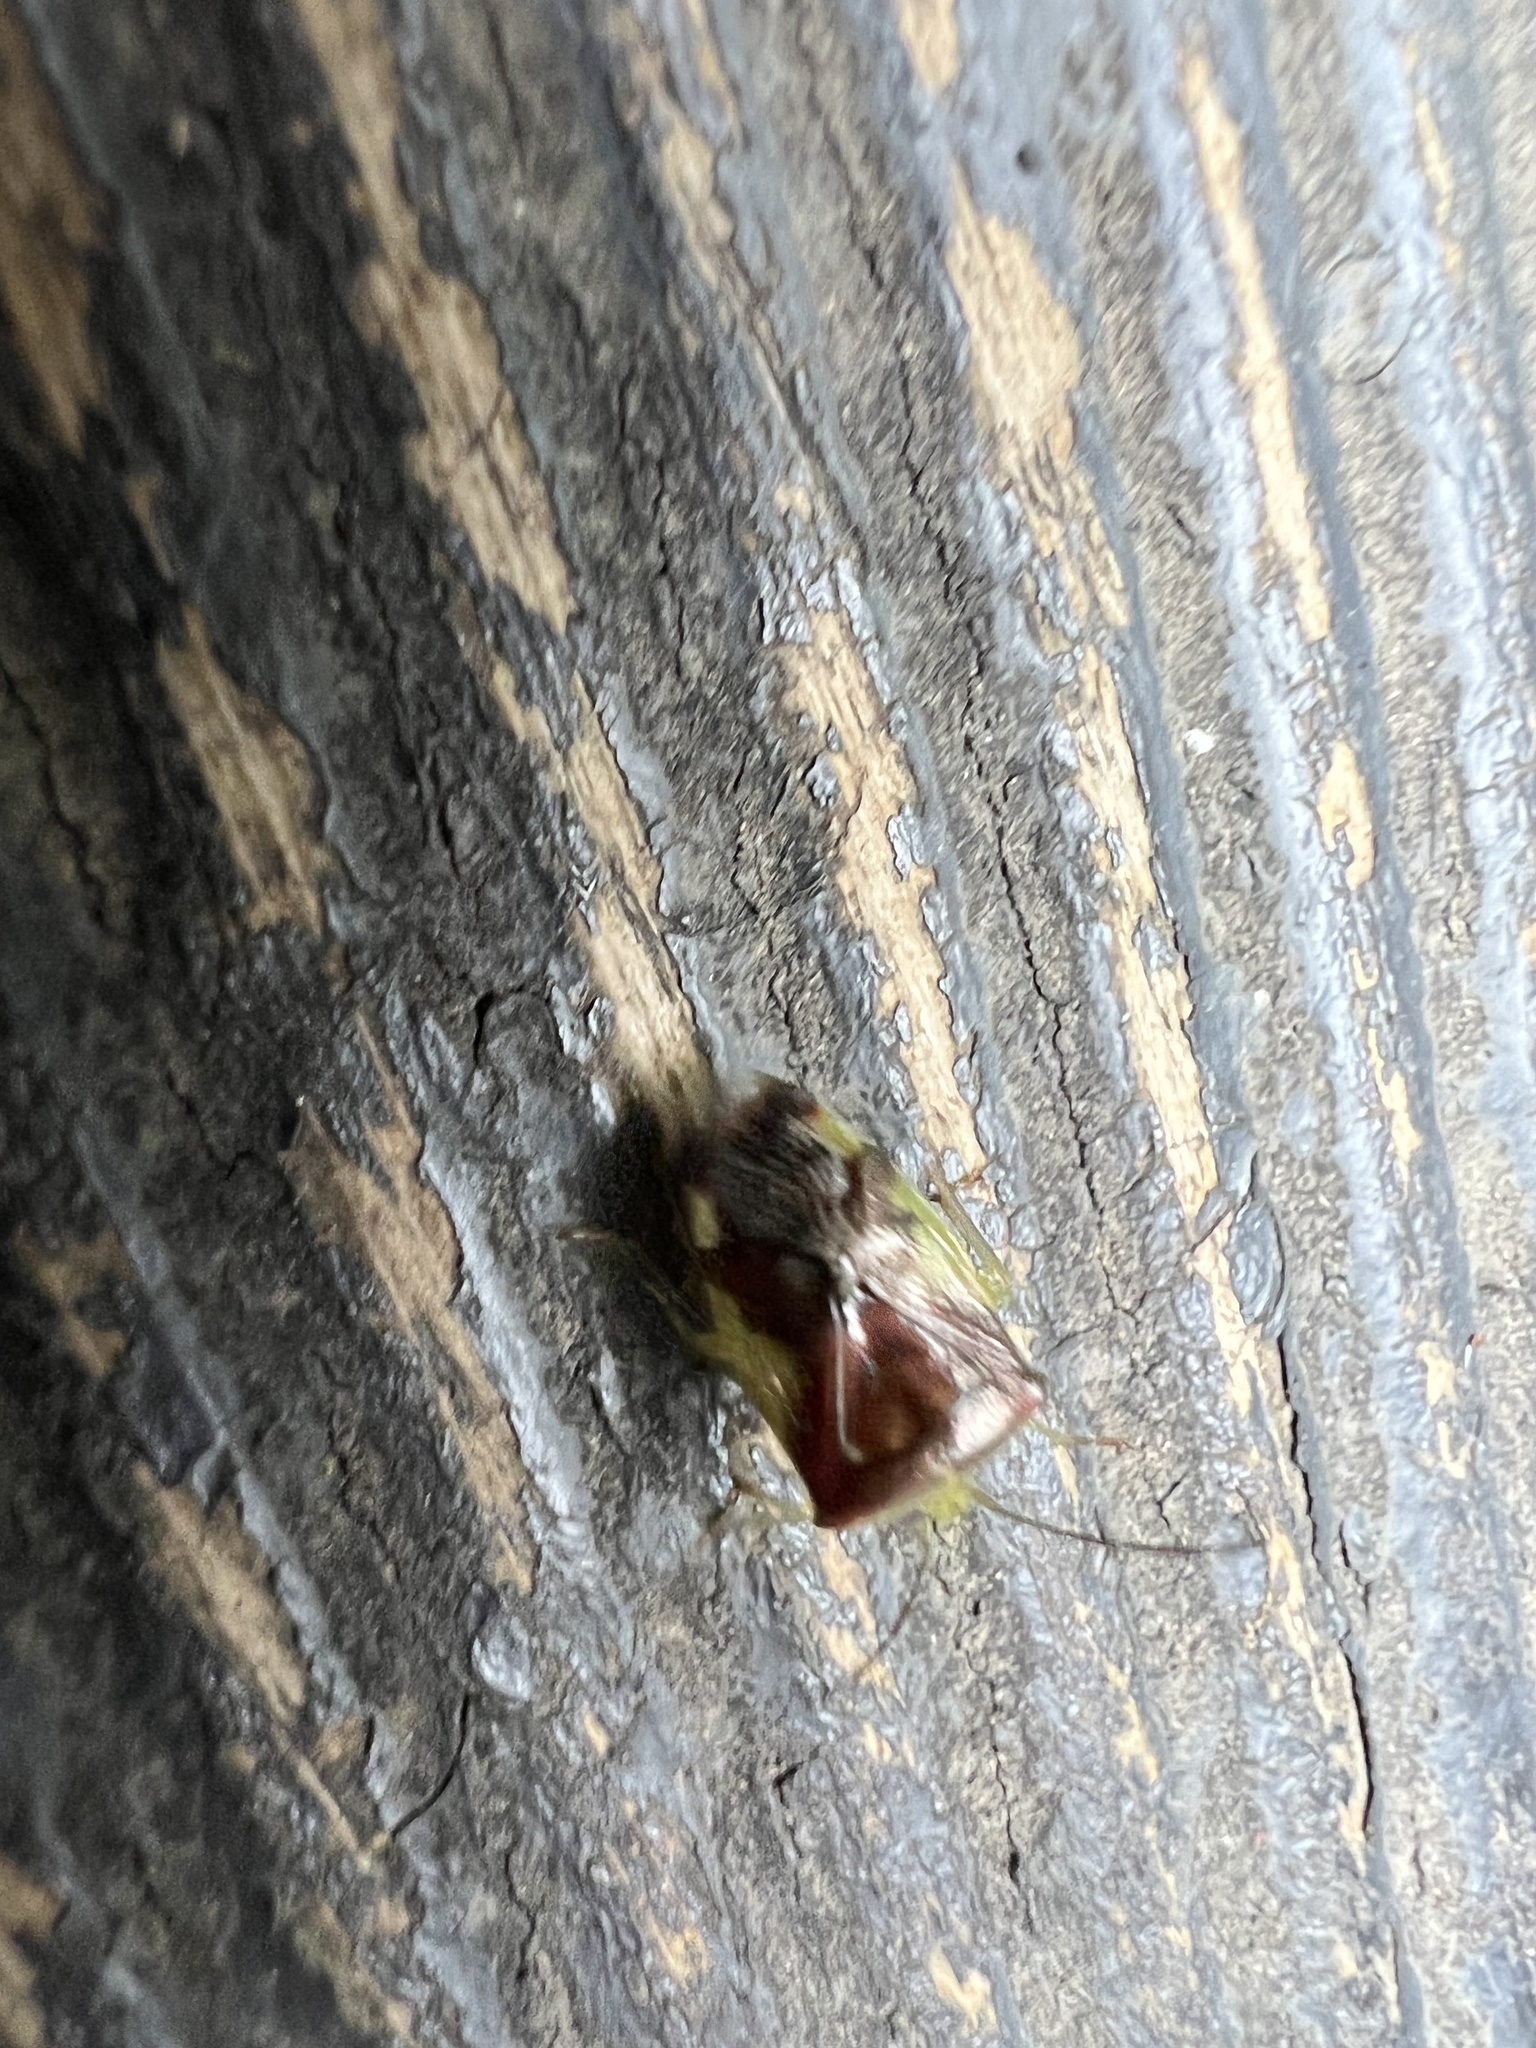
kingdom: Animalia
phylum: Arthropoda
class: Insecta
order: Hemiptera
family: Acanthosomatidae
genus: Elasmostethus
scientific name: Elasmostethus nubilus
